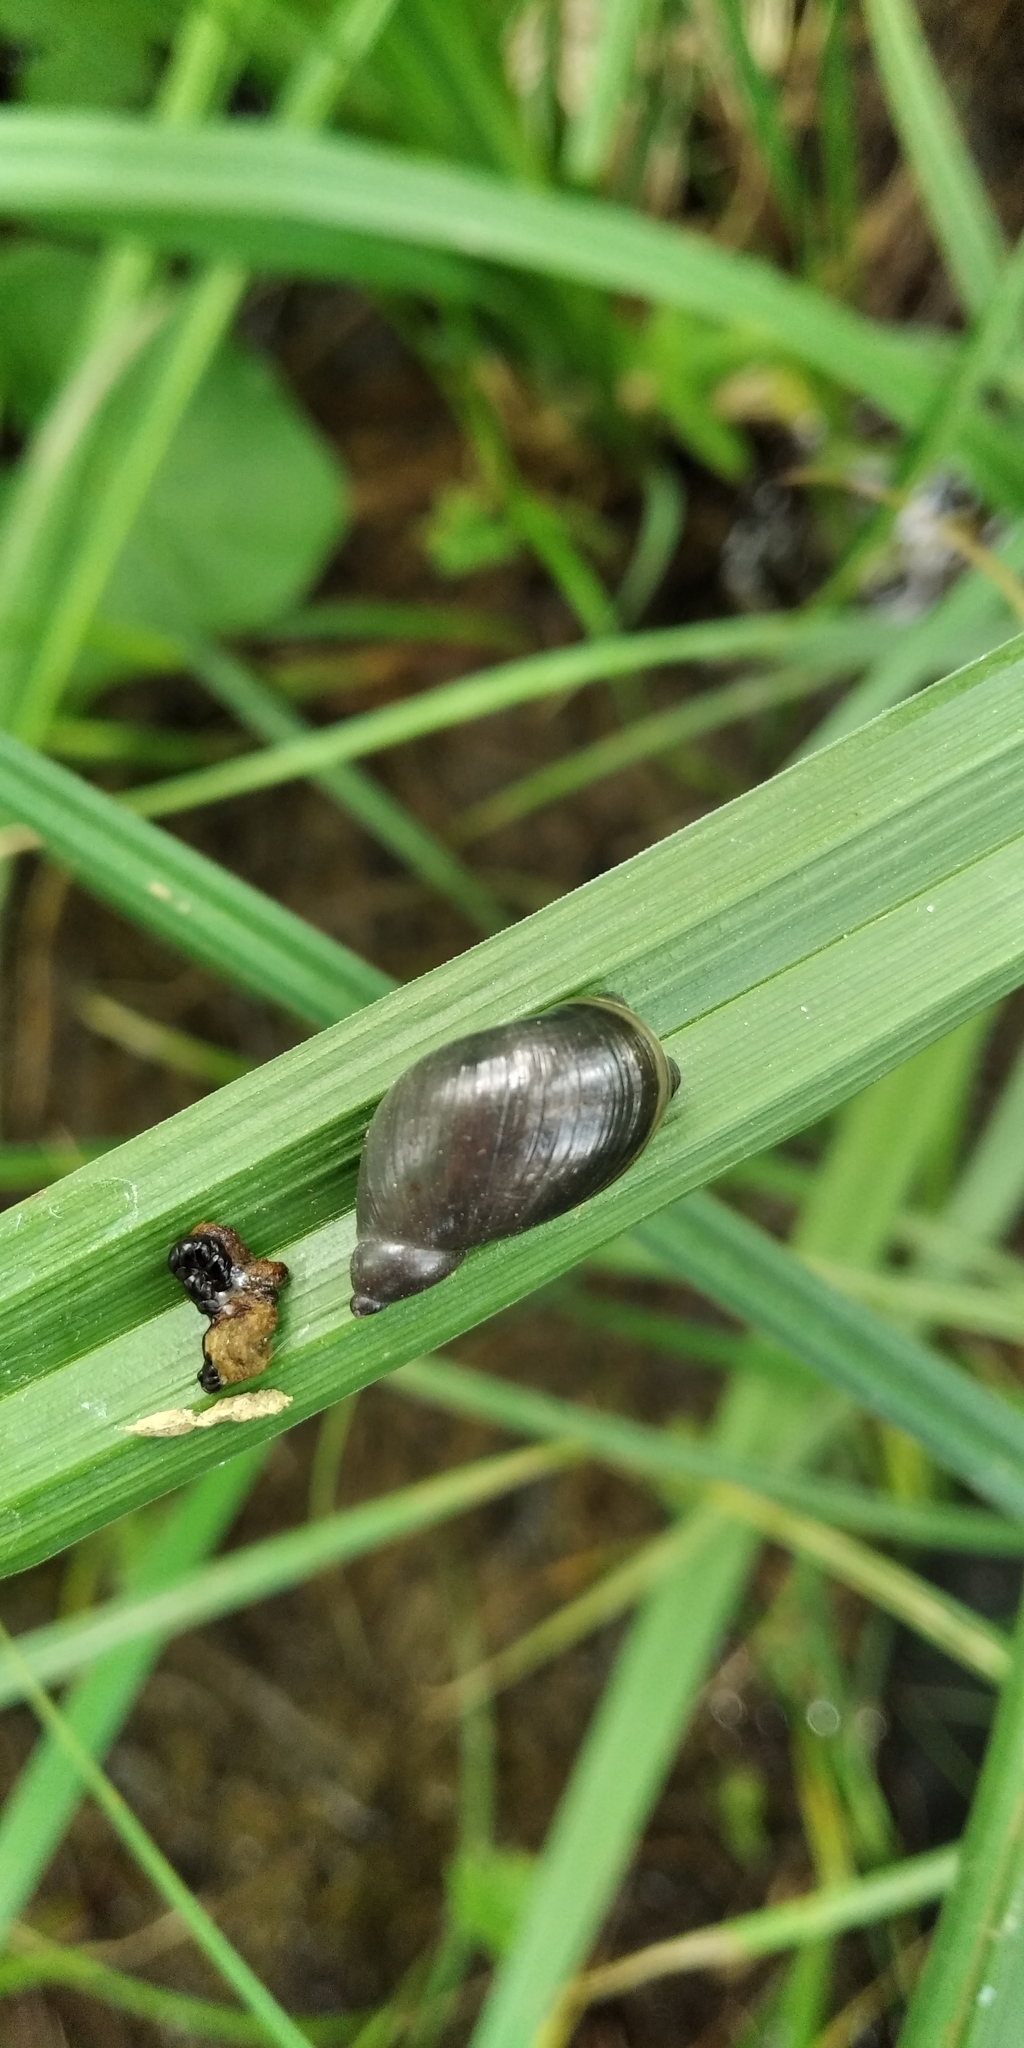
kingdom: Animalia
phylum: Mollusca
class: Gastropoda
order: Stylommatophora
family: Succineidae
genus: Succinea
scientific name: Succinea putris
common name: European ambersnail
